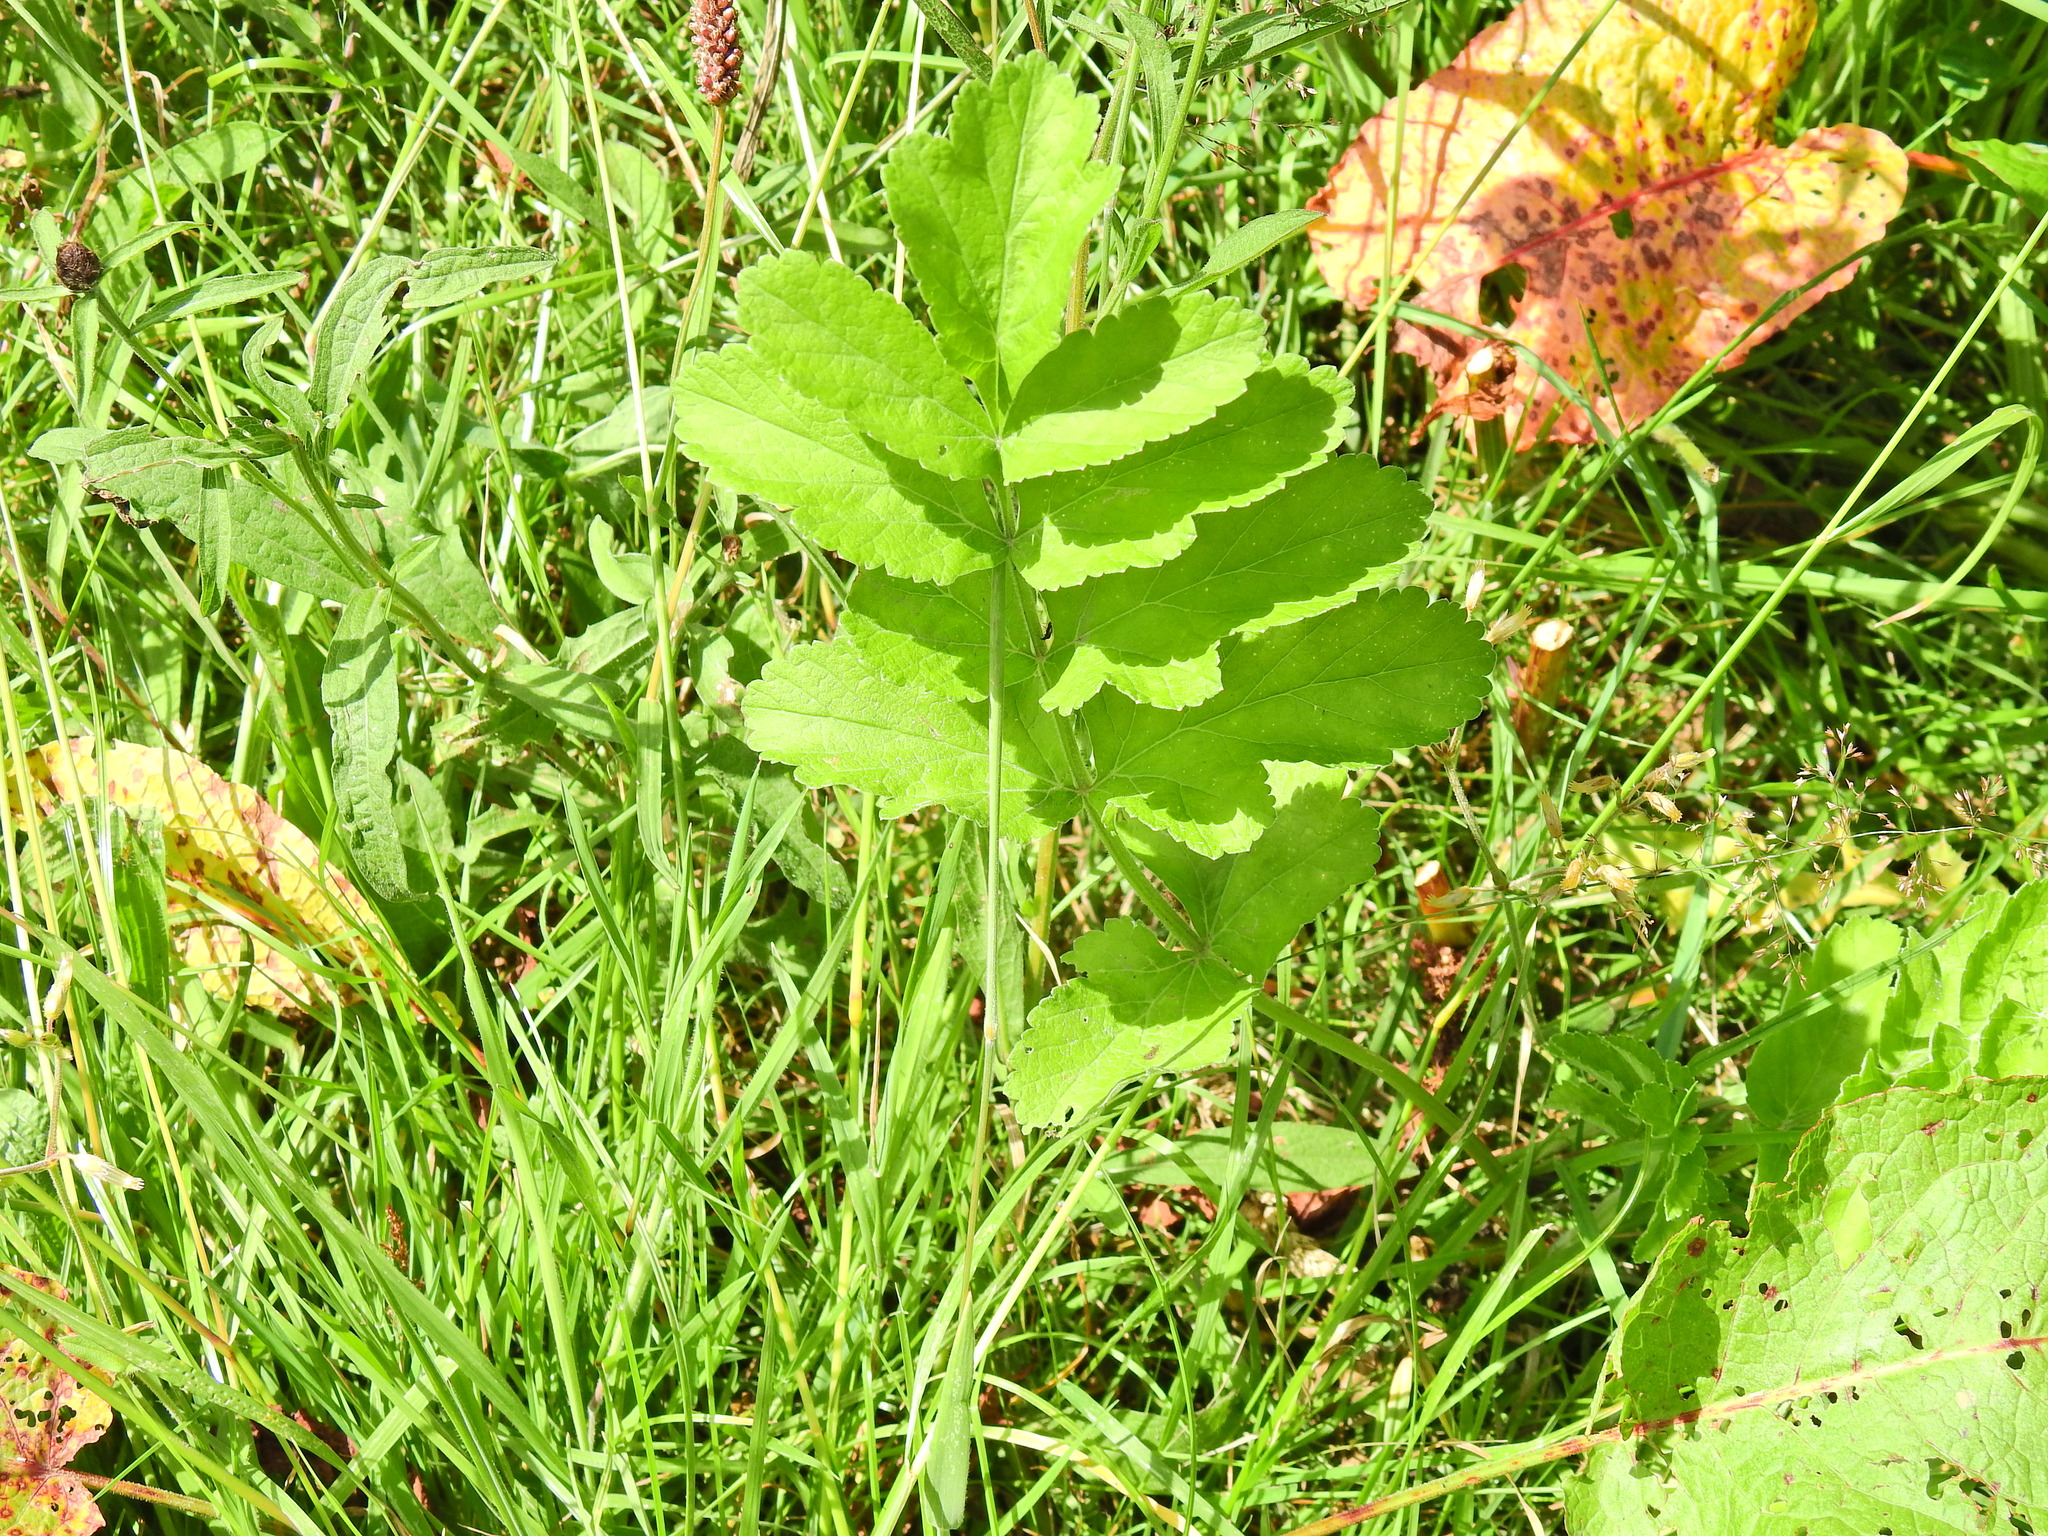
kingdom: Plantae
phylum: Tracheophyta
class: Magnoliopsida
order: Apiales
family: Apiaceae
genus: Pastinaca
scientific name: Pastinaca sativa
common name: Wild parsnip
